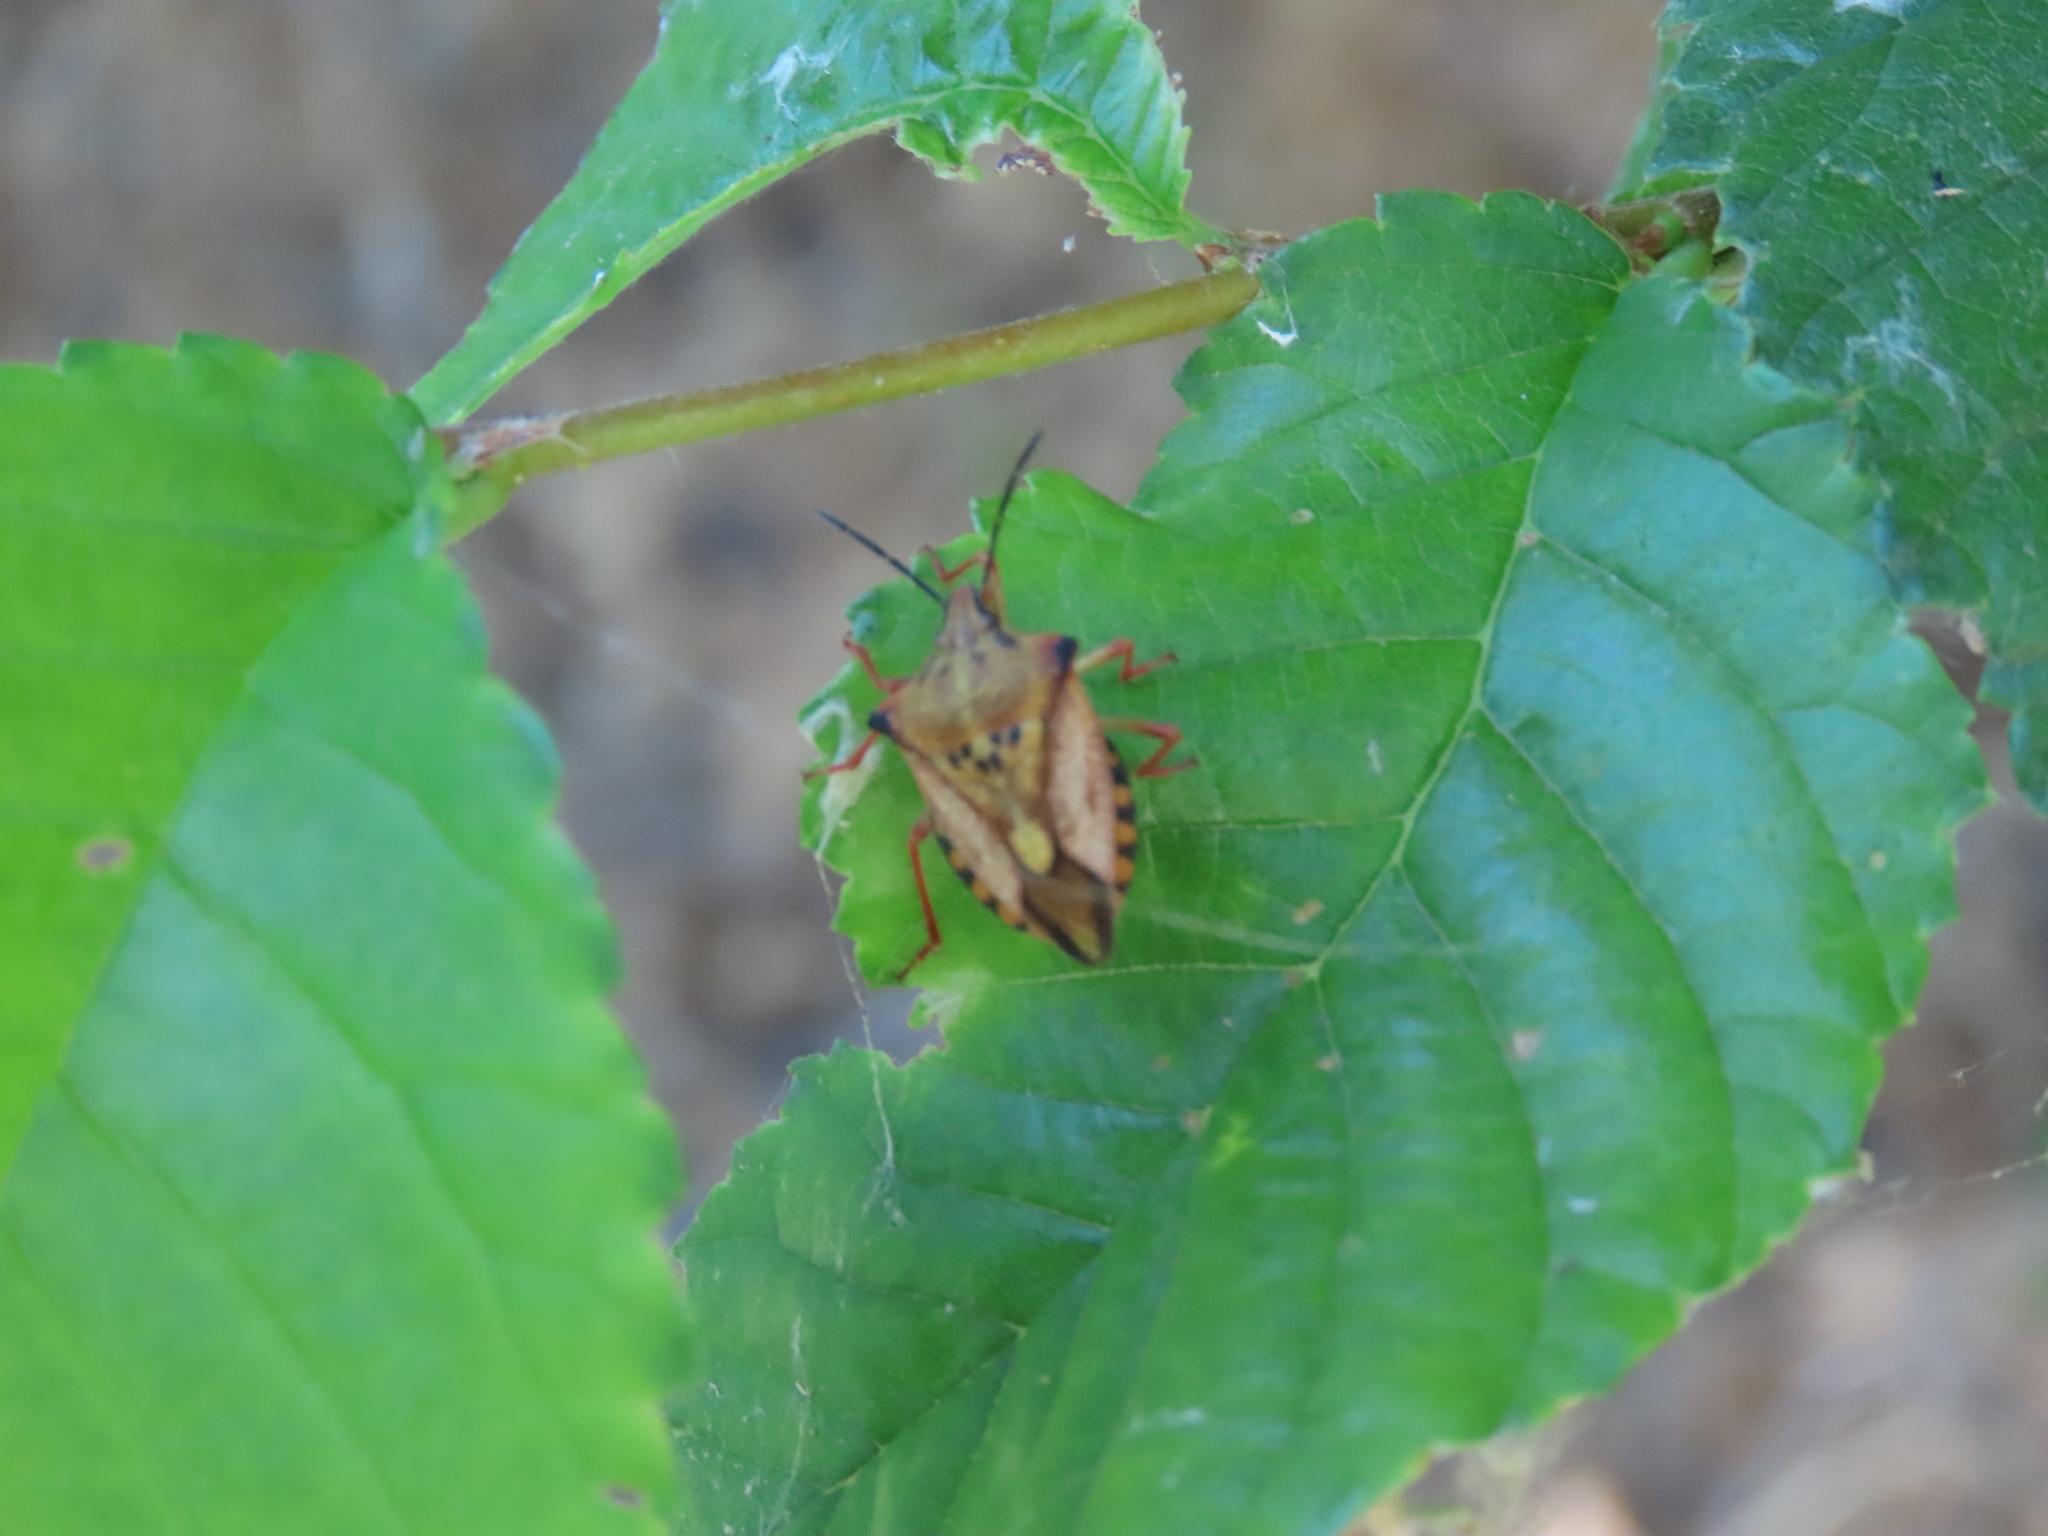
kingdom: Animalia
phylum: Arthropoda
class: Insecta
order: Hemiptera
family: Pentatomidae
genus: Carpocoris
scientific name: Carpocoris mediterraneus
